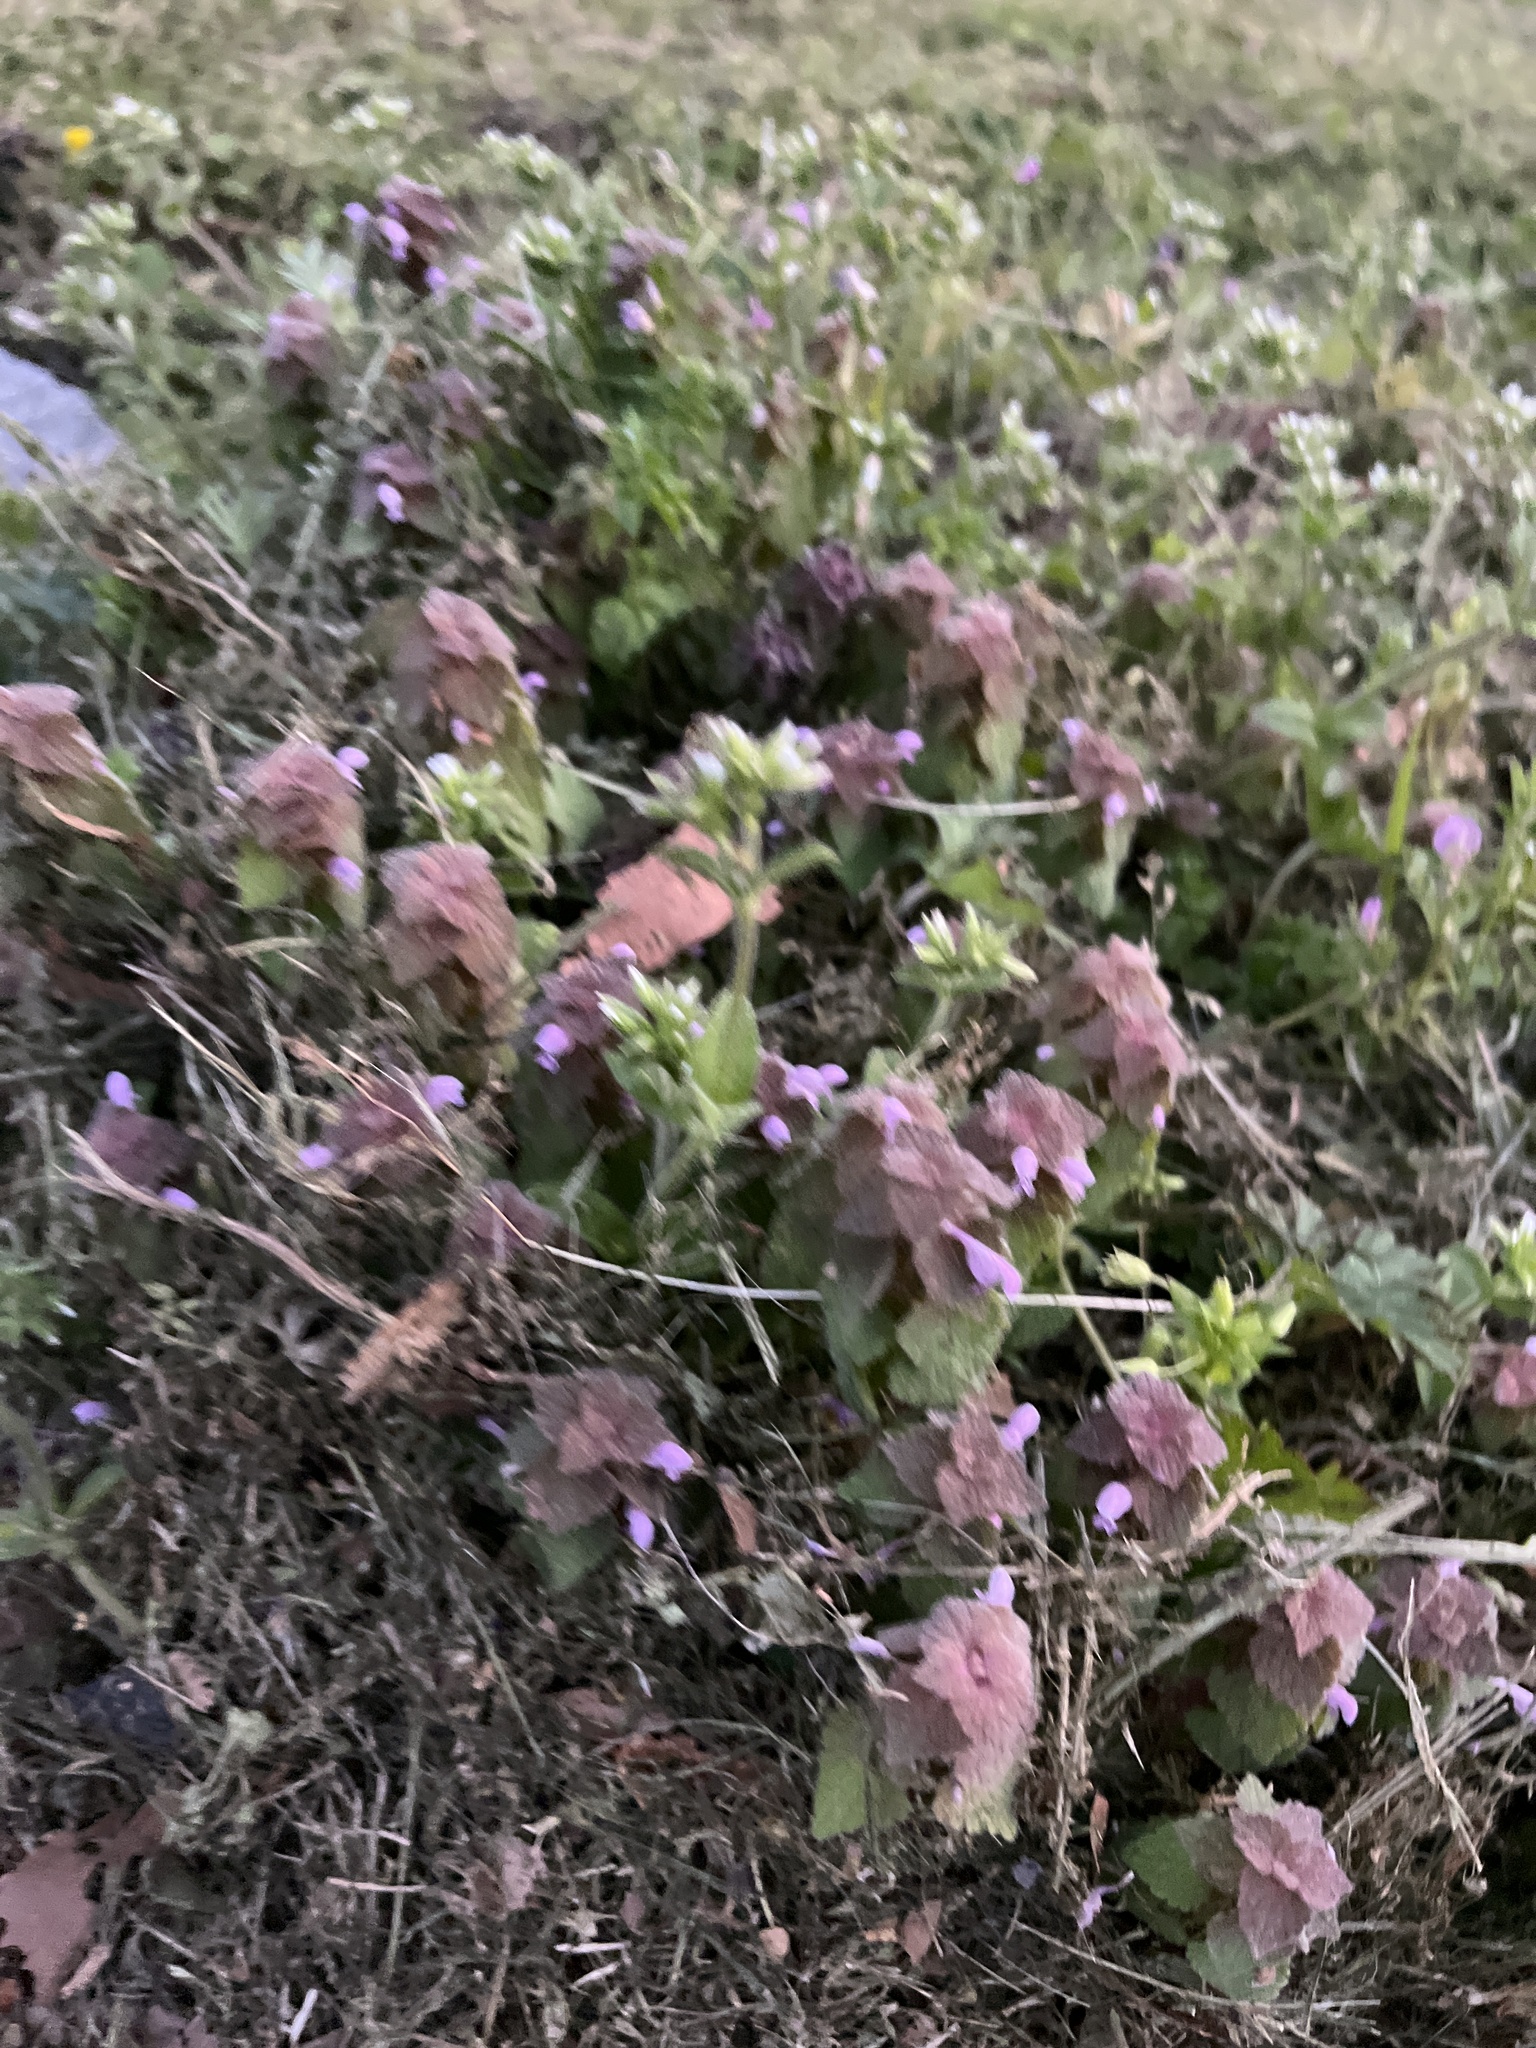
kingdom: Plantae
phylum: Tracheophyta
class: Magnoliopsida
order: Lamiales
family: Lamiaceae
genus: Lamium
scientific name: Lamium purpureum
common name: Red dead-nettle
